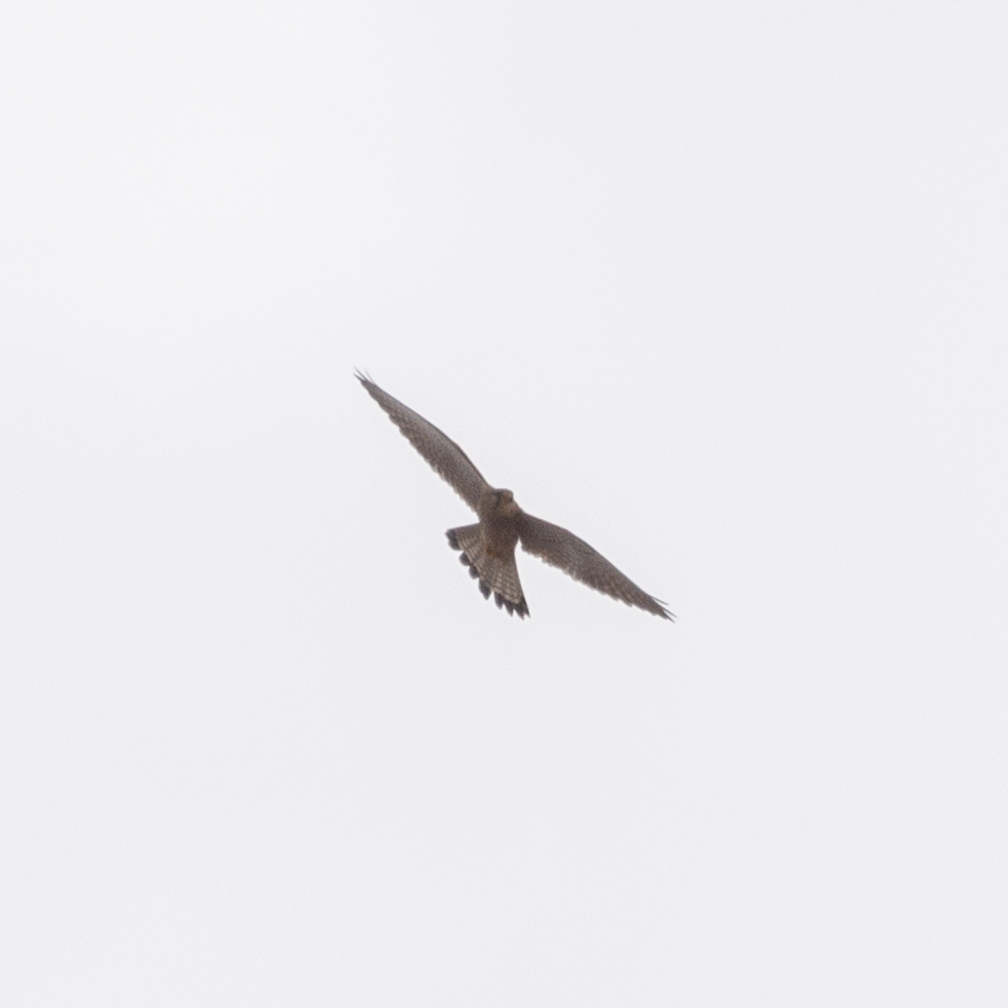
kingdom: Animalia
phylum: Chordata
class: Aves
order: Falconiformes
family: Falconidae
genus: Falco
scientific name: Falco tinnunculus
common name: Common kestrel
